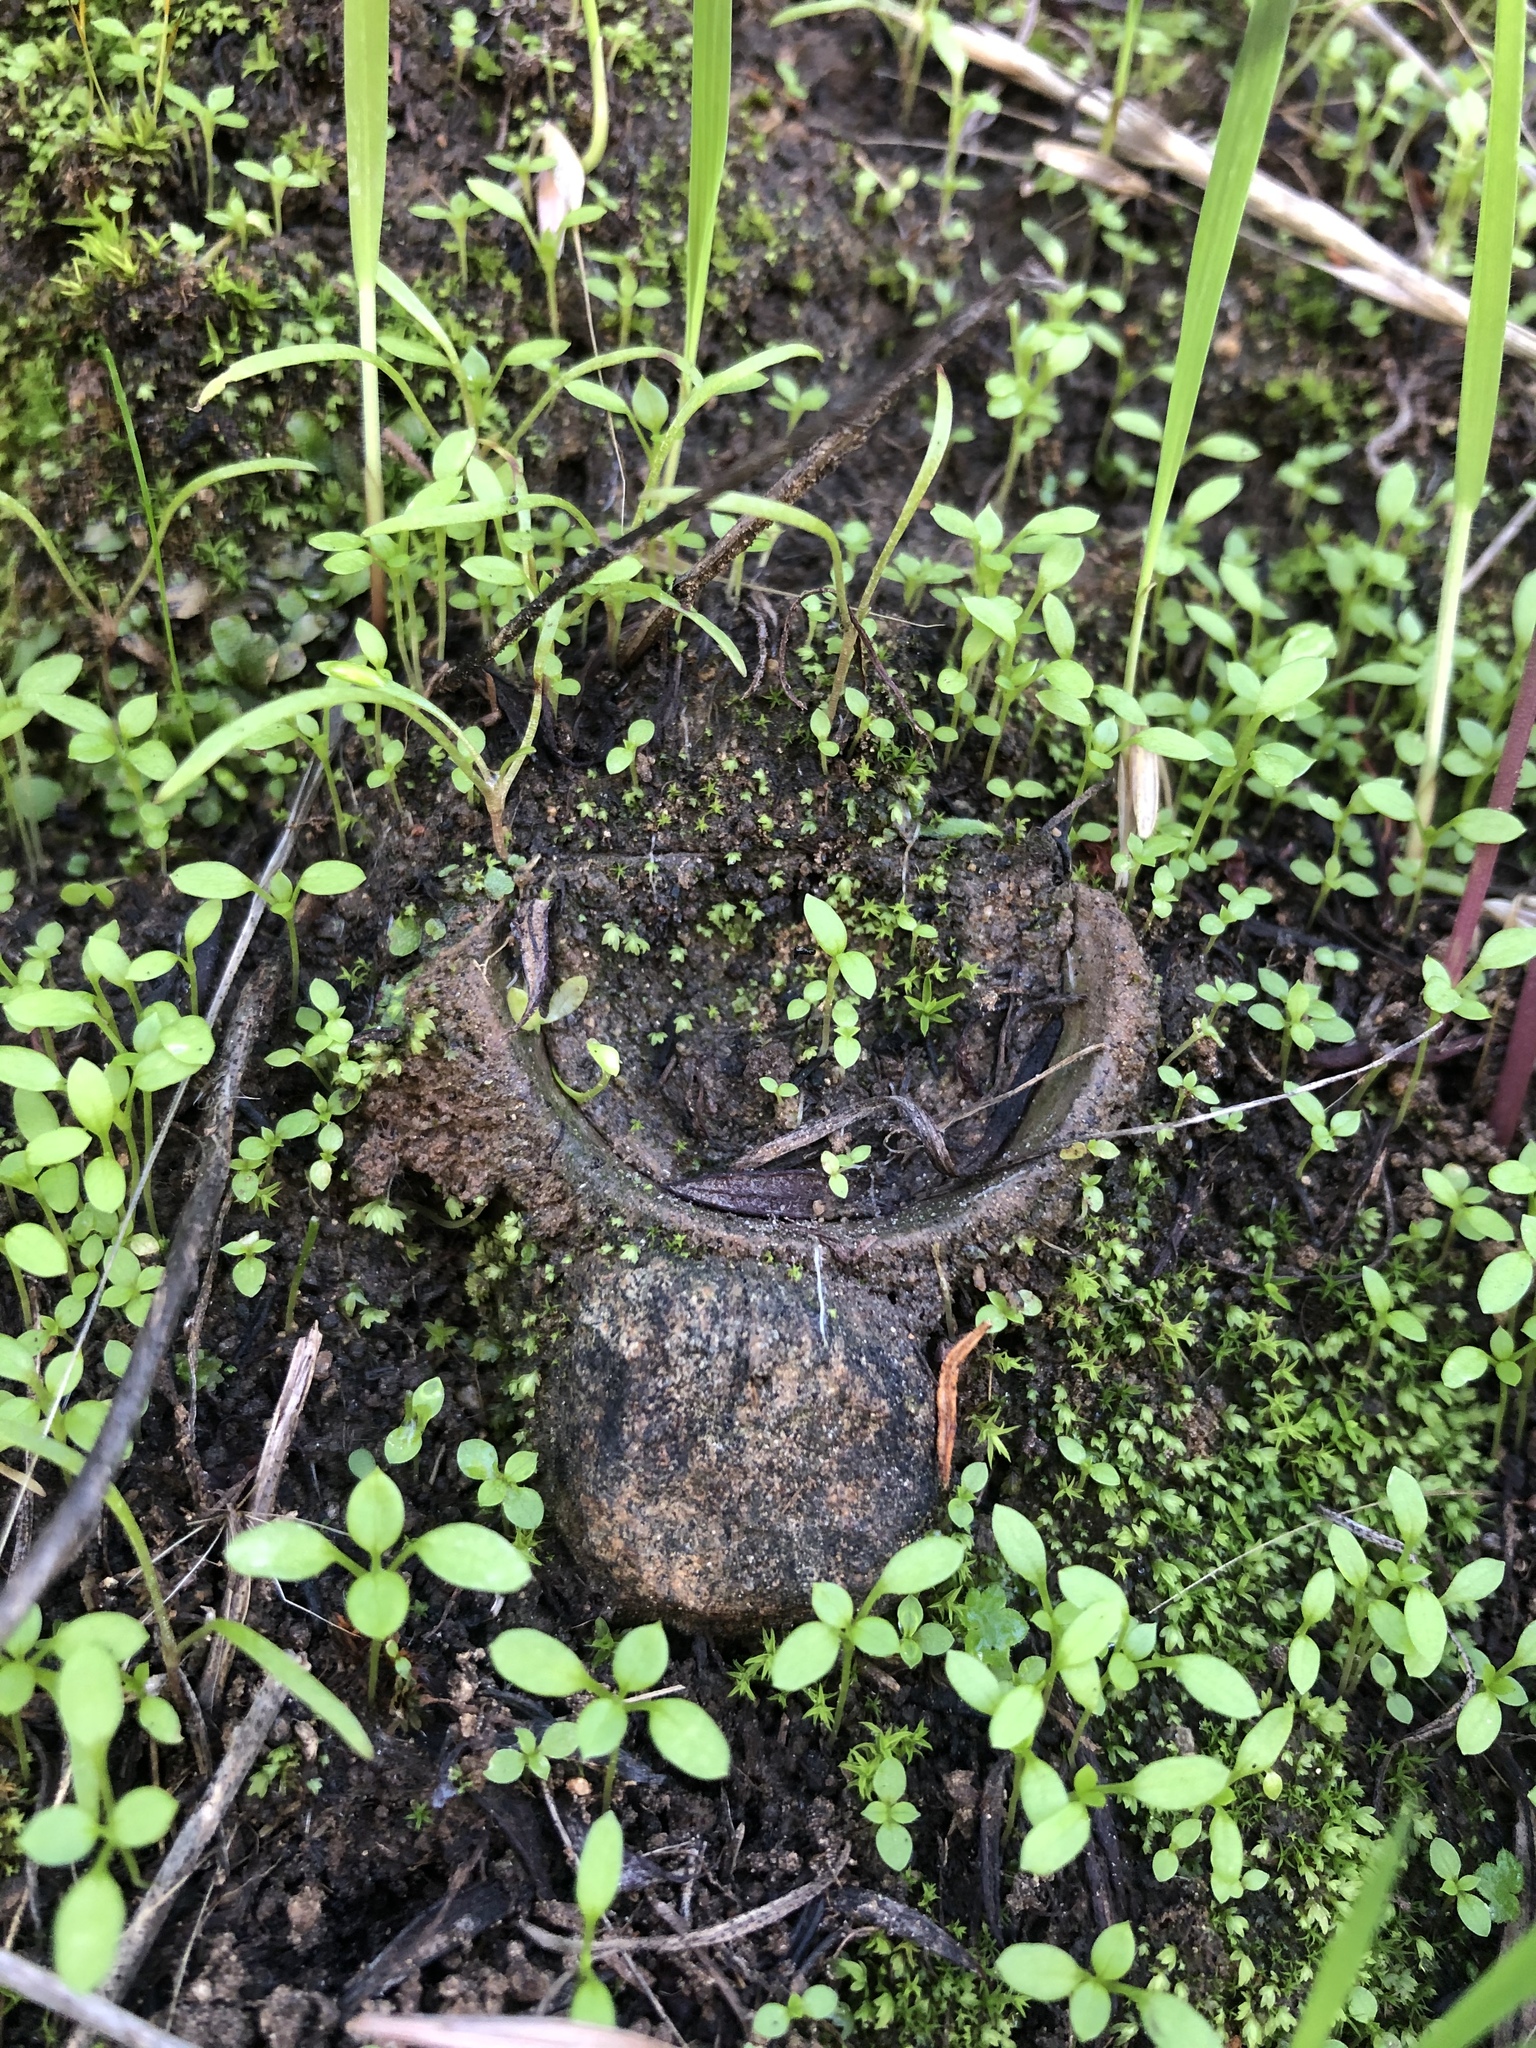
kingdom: Animalia
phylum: Arthropoda
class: Arachnida
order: Araneae
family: Halonoproctidae
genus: Bothriocyrtum
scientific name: Bothriocyrtum californicum
